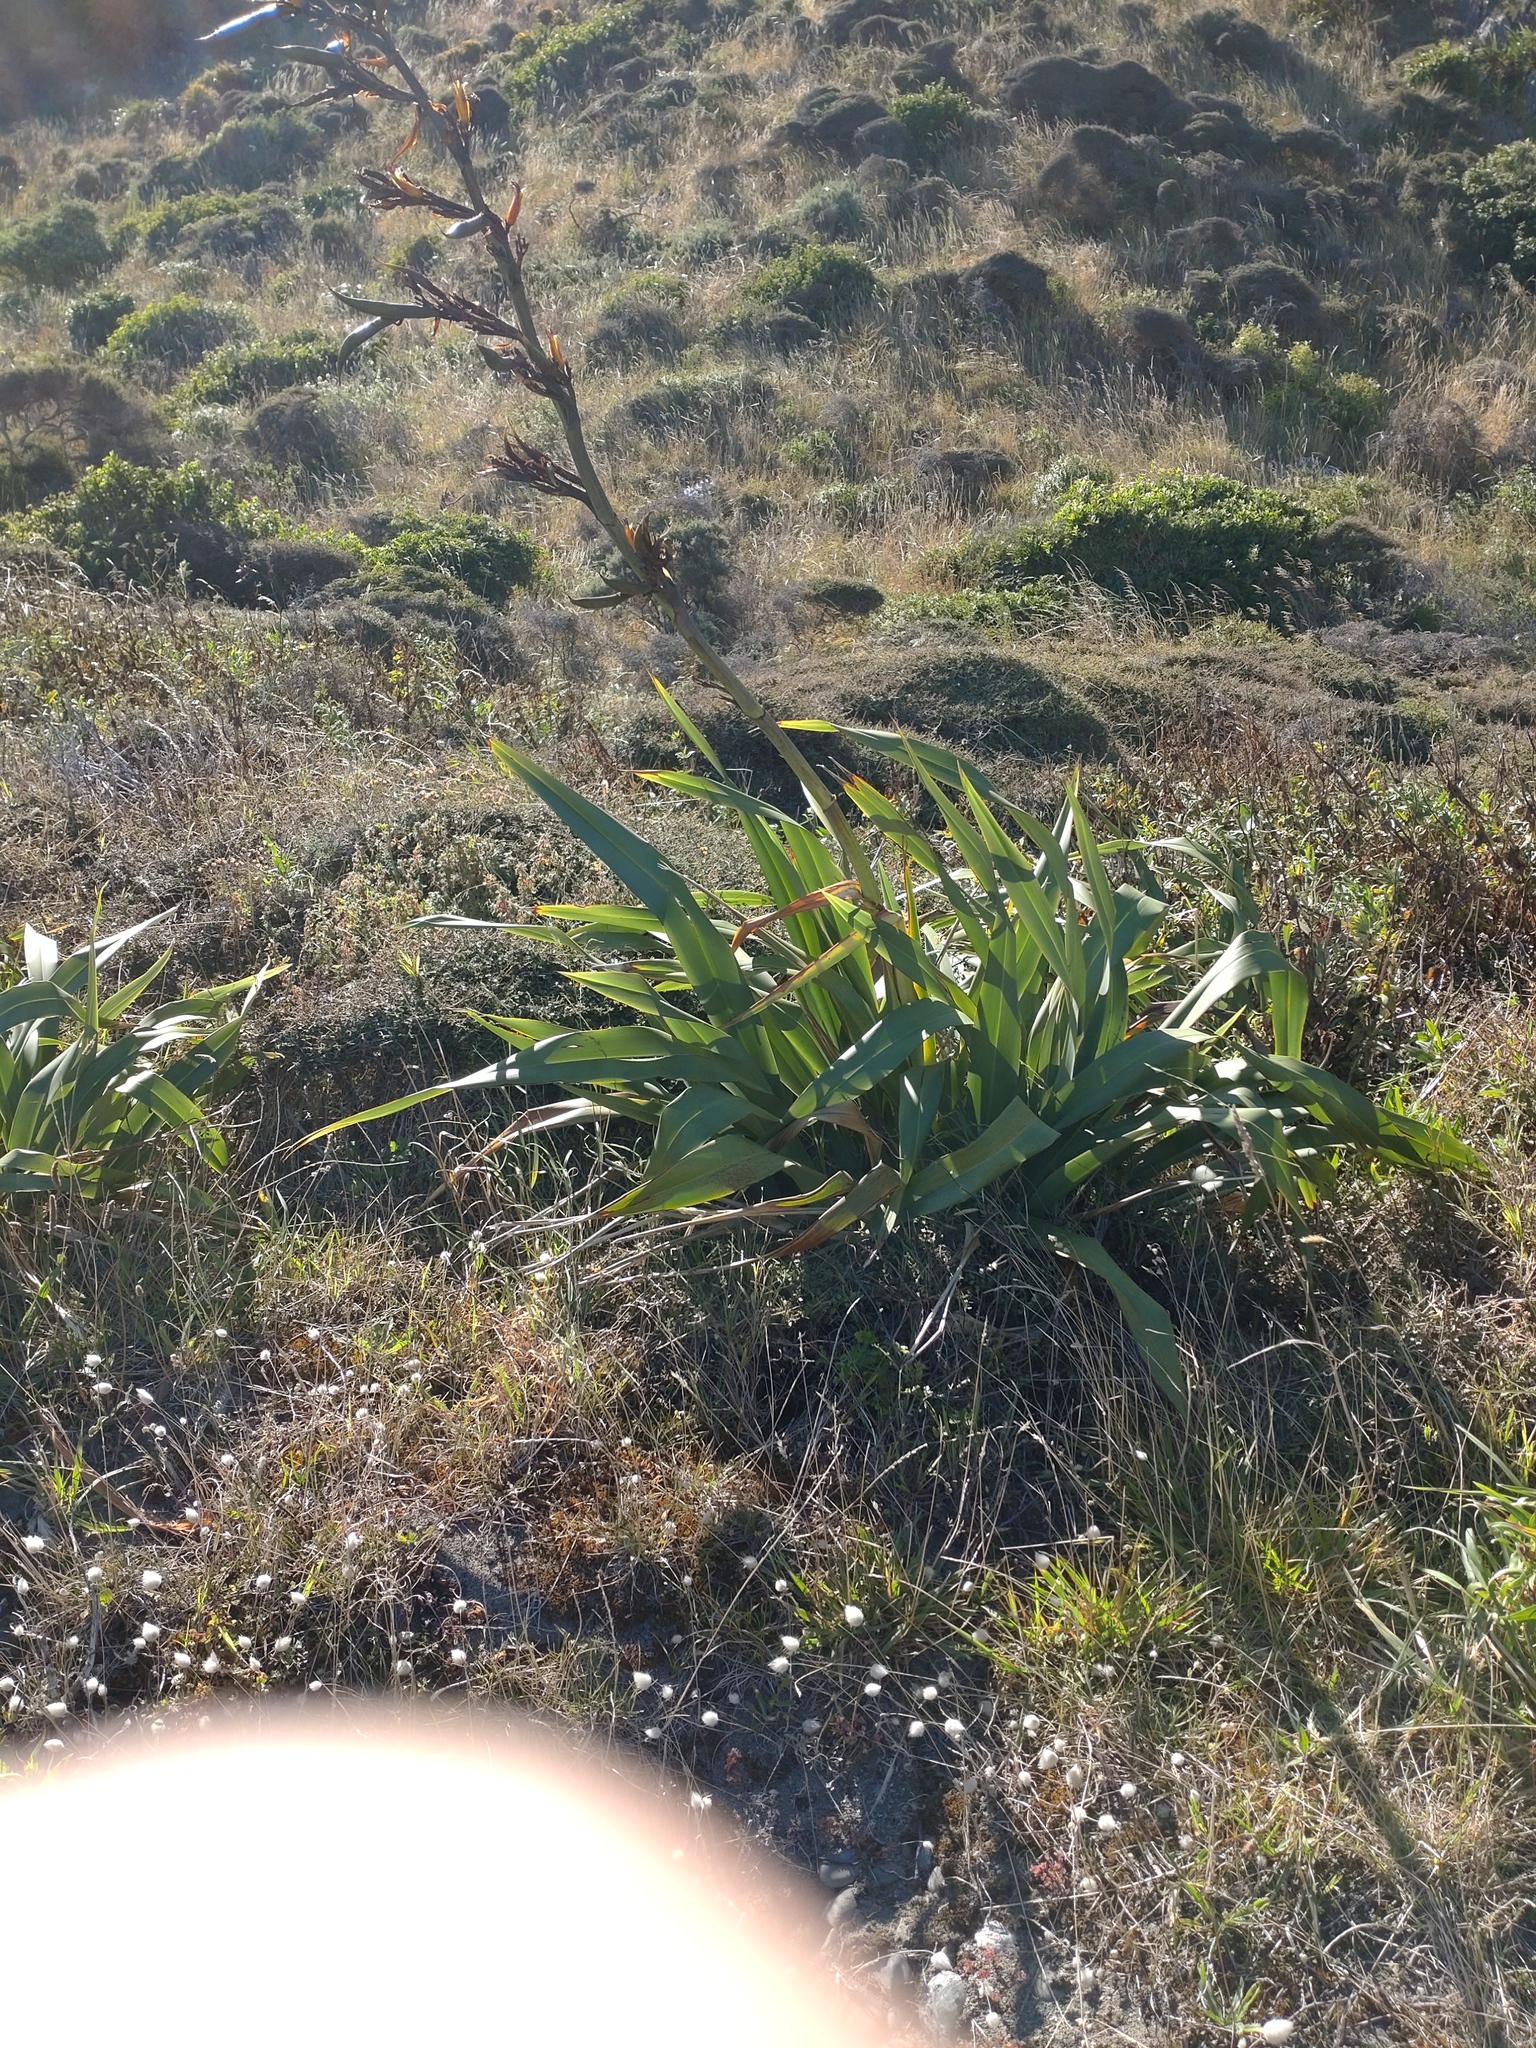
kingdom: Plantae
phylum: Tracheophyta
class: Liliopsida
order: Asparagales
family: Asphodelaceae
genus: Phormium
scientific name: Phormium colensoi
